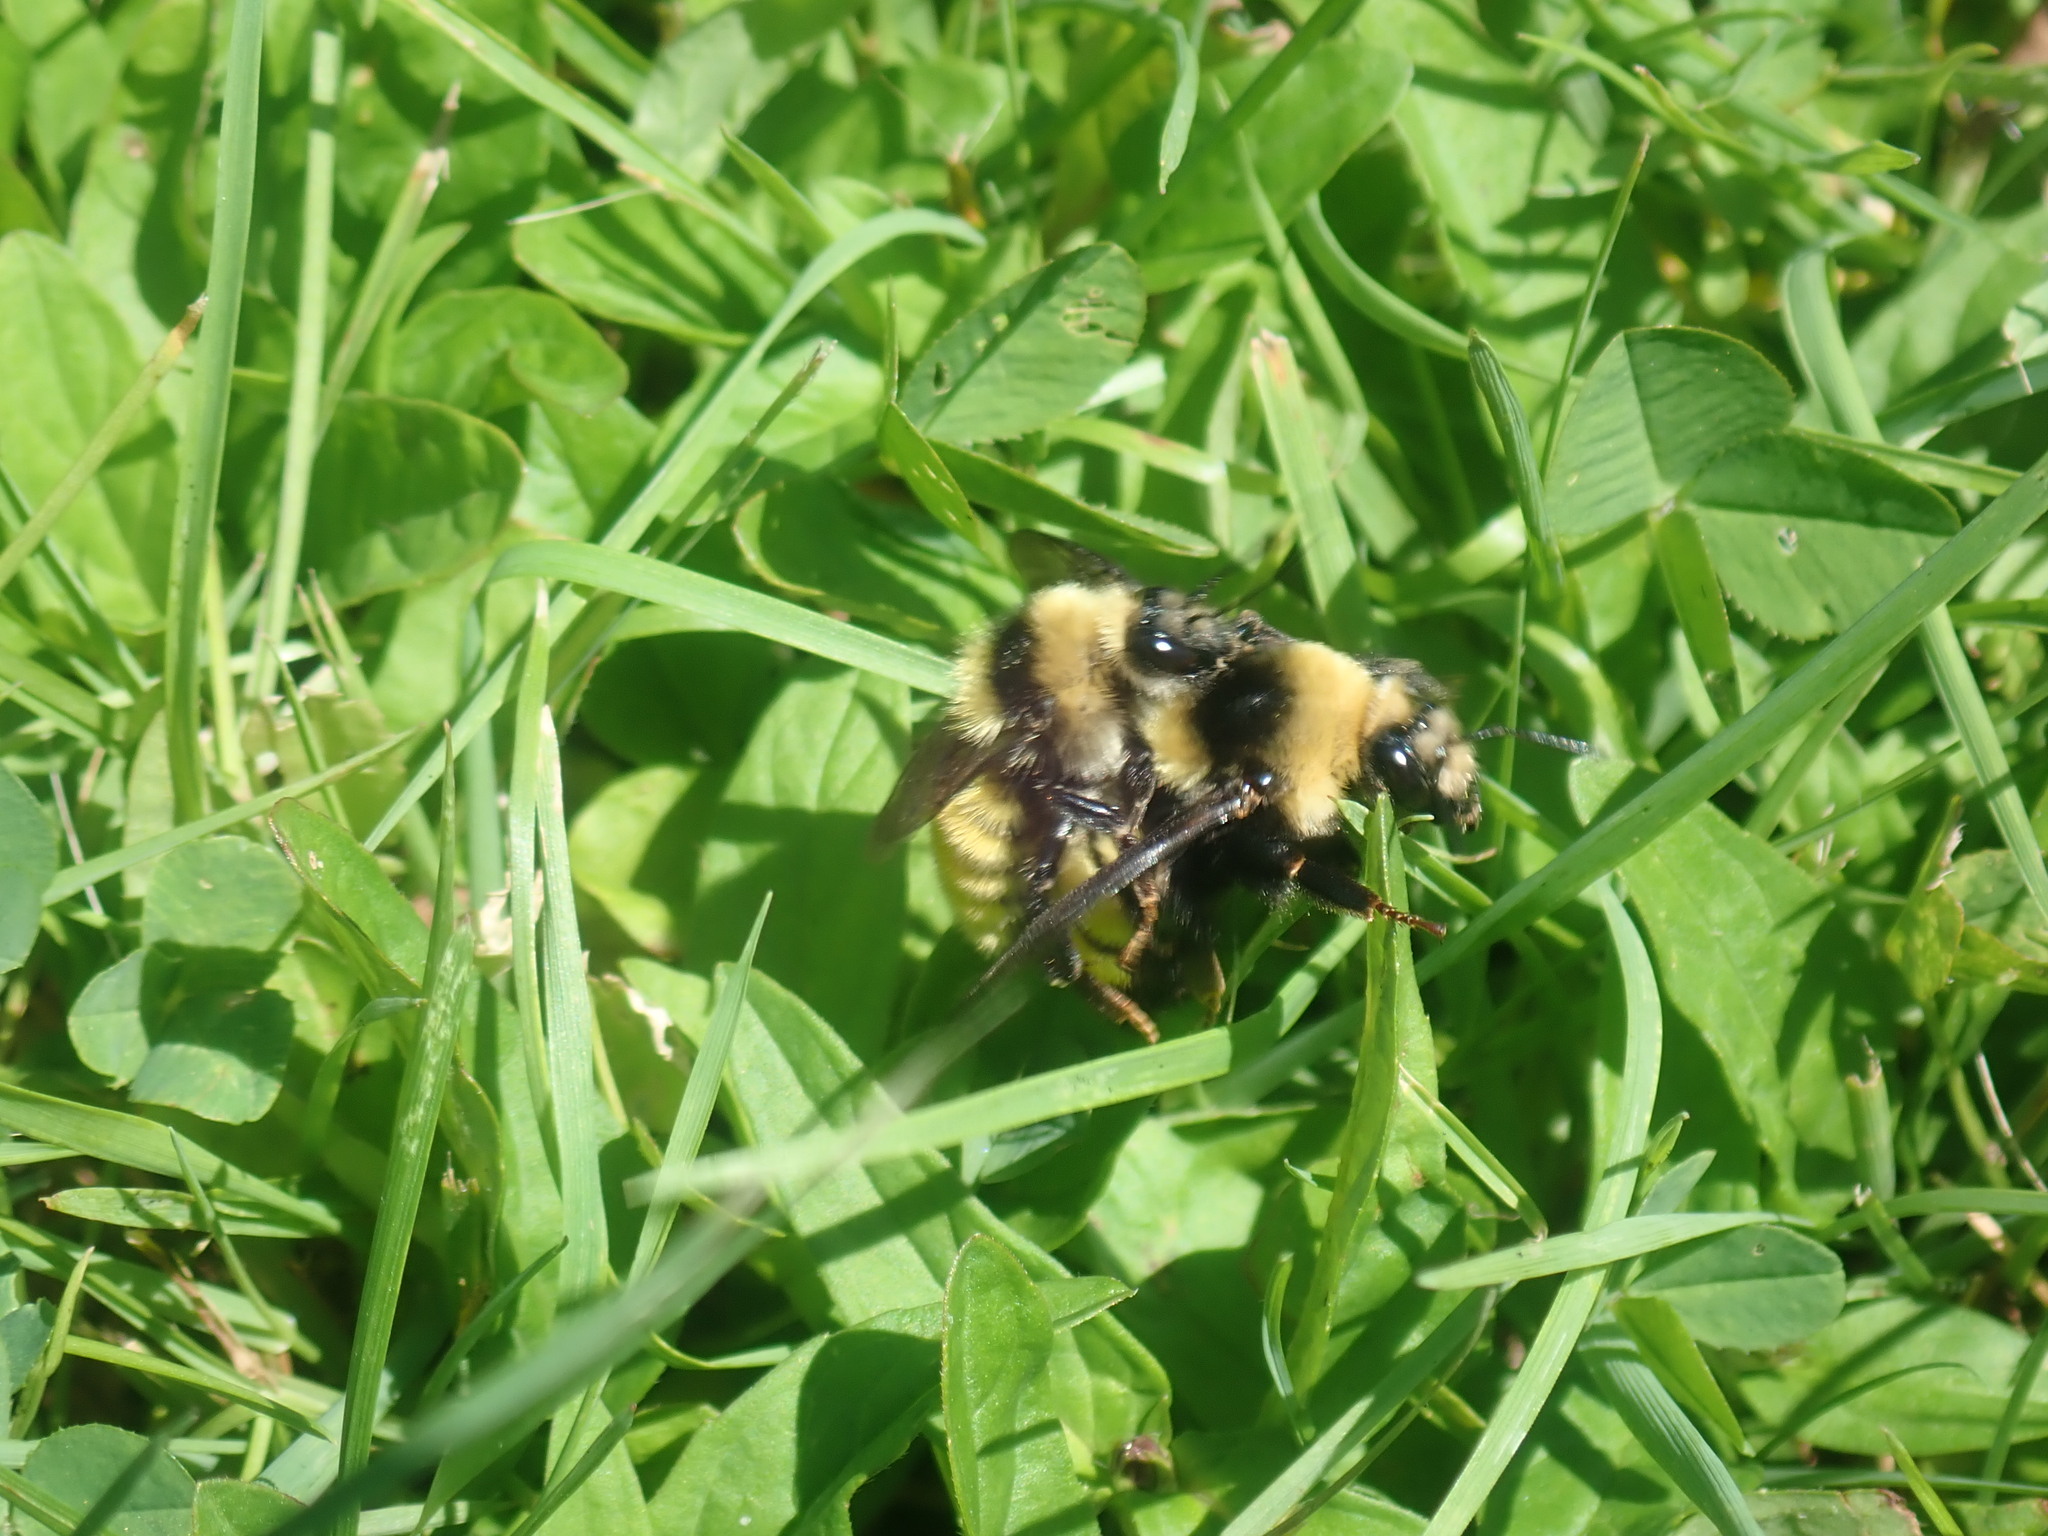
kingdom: Animalia
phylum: Arthropoda
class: Insecta
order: Hymenoptera
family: Apidae
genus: Bombus
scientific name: Bombus borealis
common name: Northern amber bumble bee
